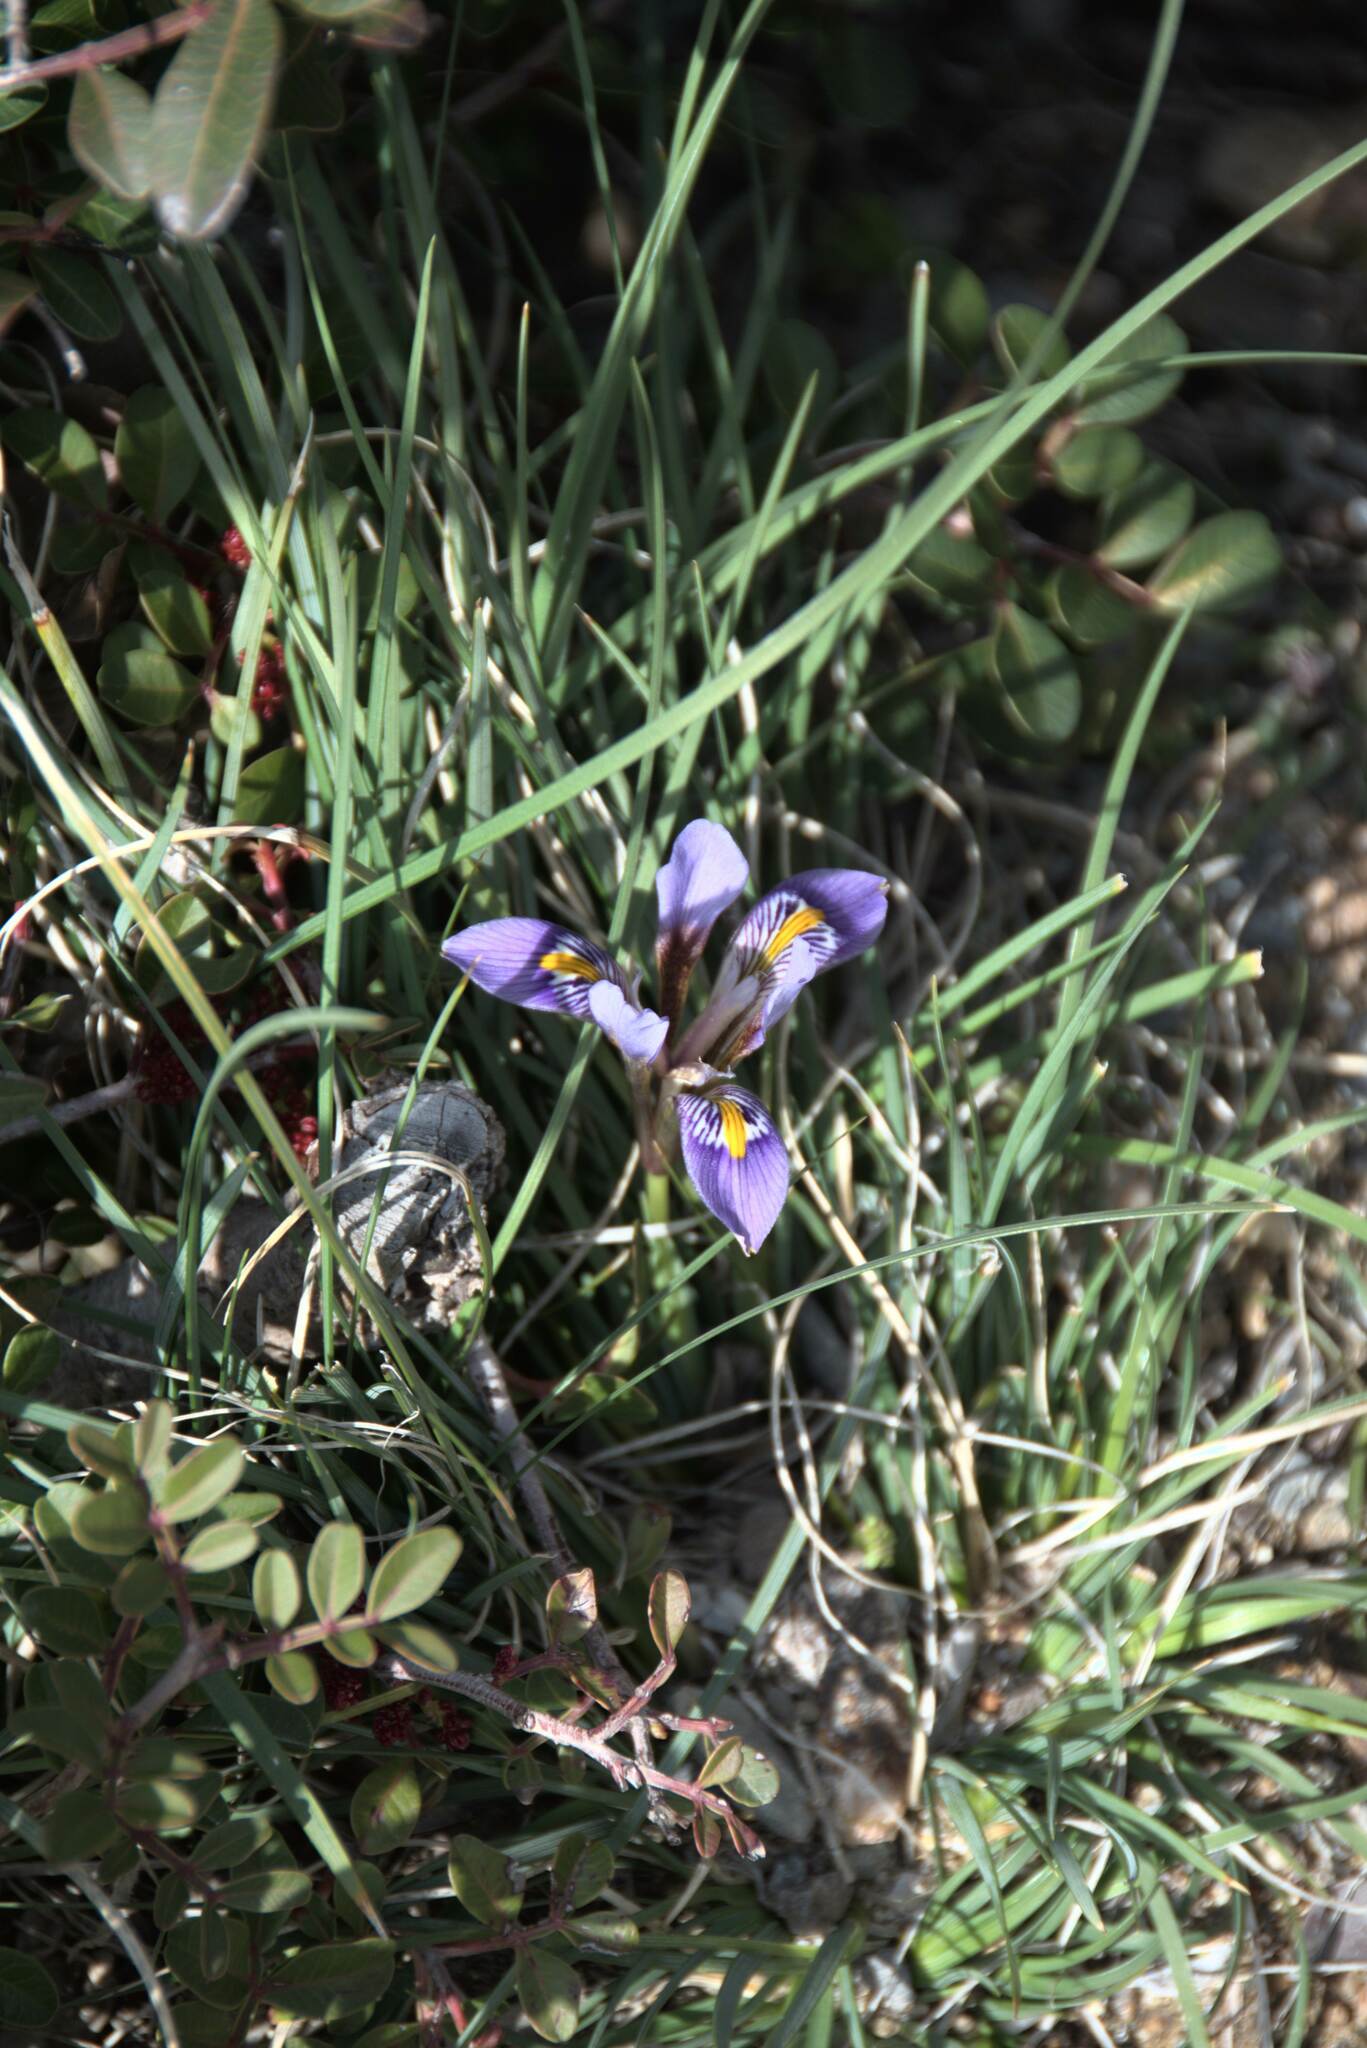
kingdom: Plantae
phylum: Tracheophyta
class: Liliopsida
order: Asparagales
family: Iridaceae
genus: Iris
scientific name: Iris unguicularis
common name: Algerian iris
